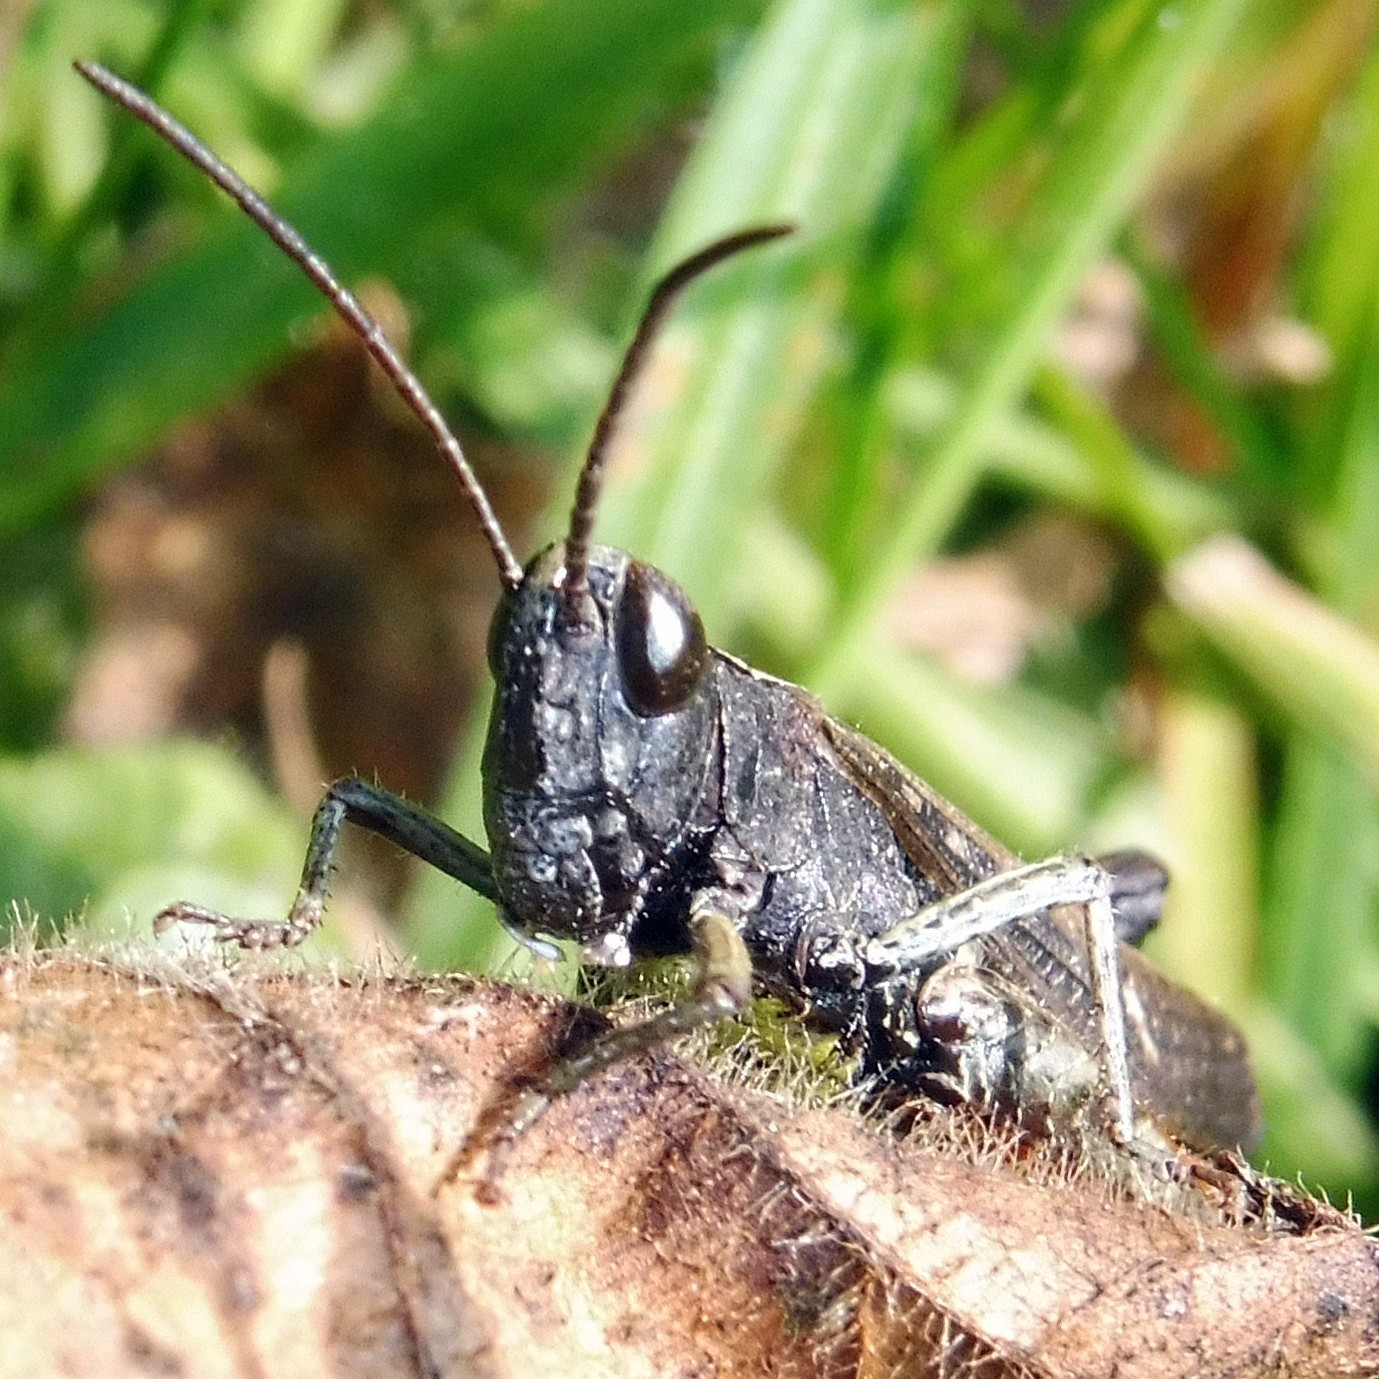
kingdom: Animalia
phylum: Arthropoda
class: Insecta
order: Orthoptera
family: Acrididae
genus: Omocestus
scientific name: Omocestus rufipes
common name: Woodland grasshopper
